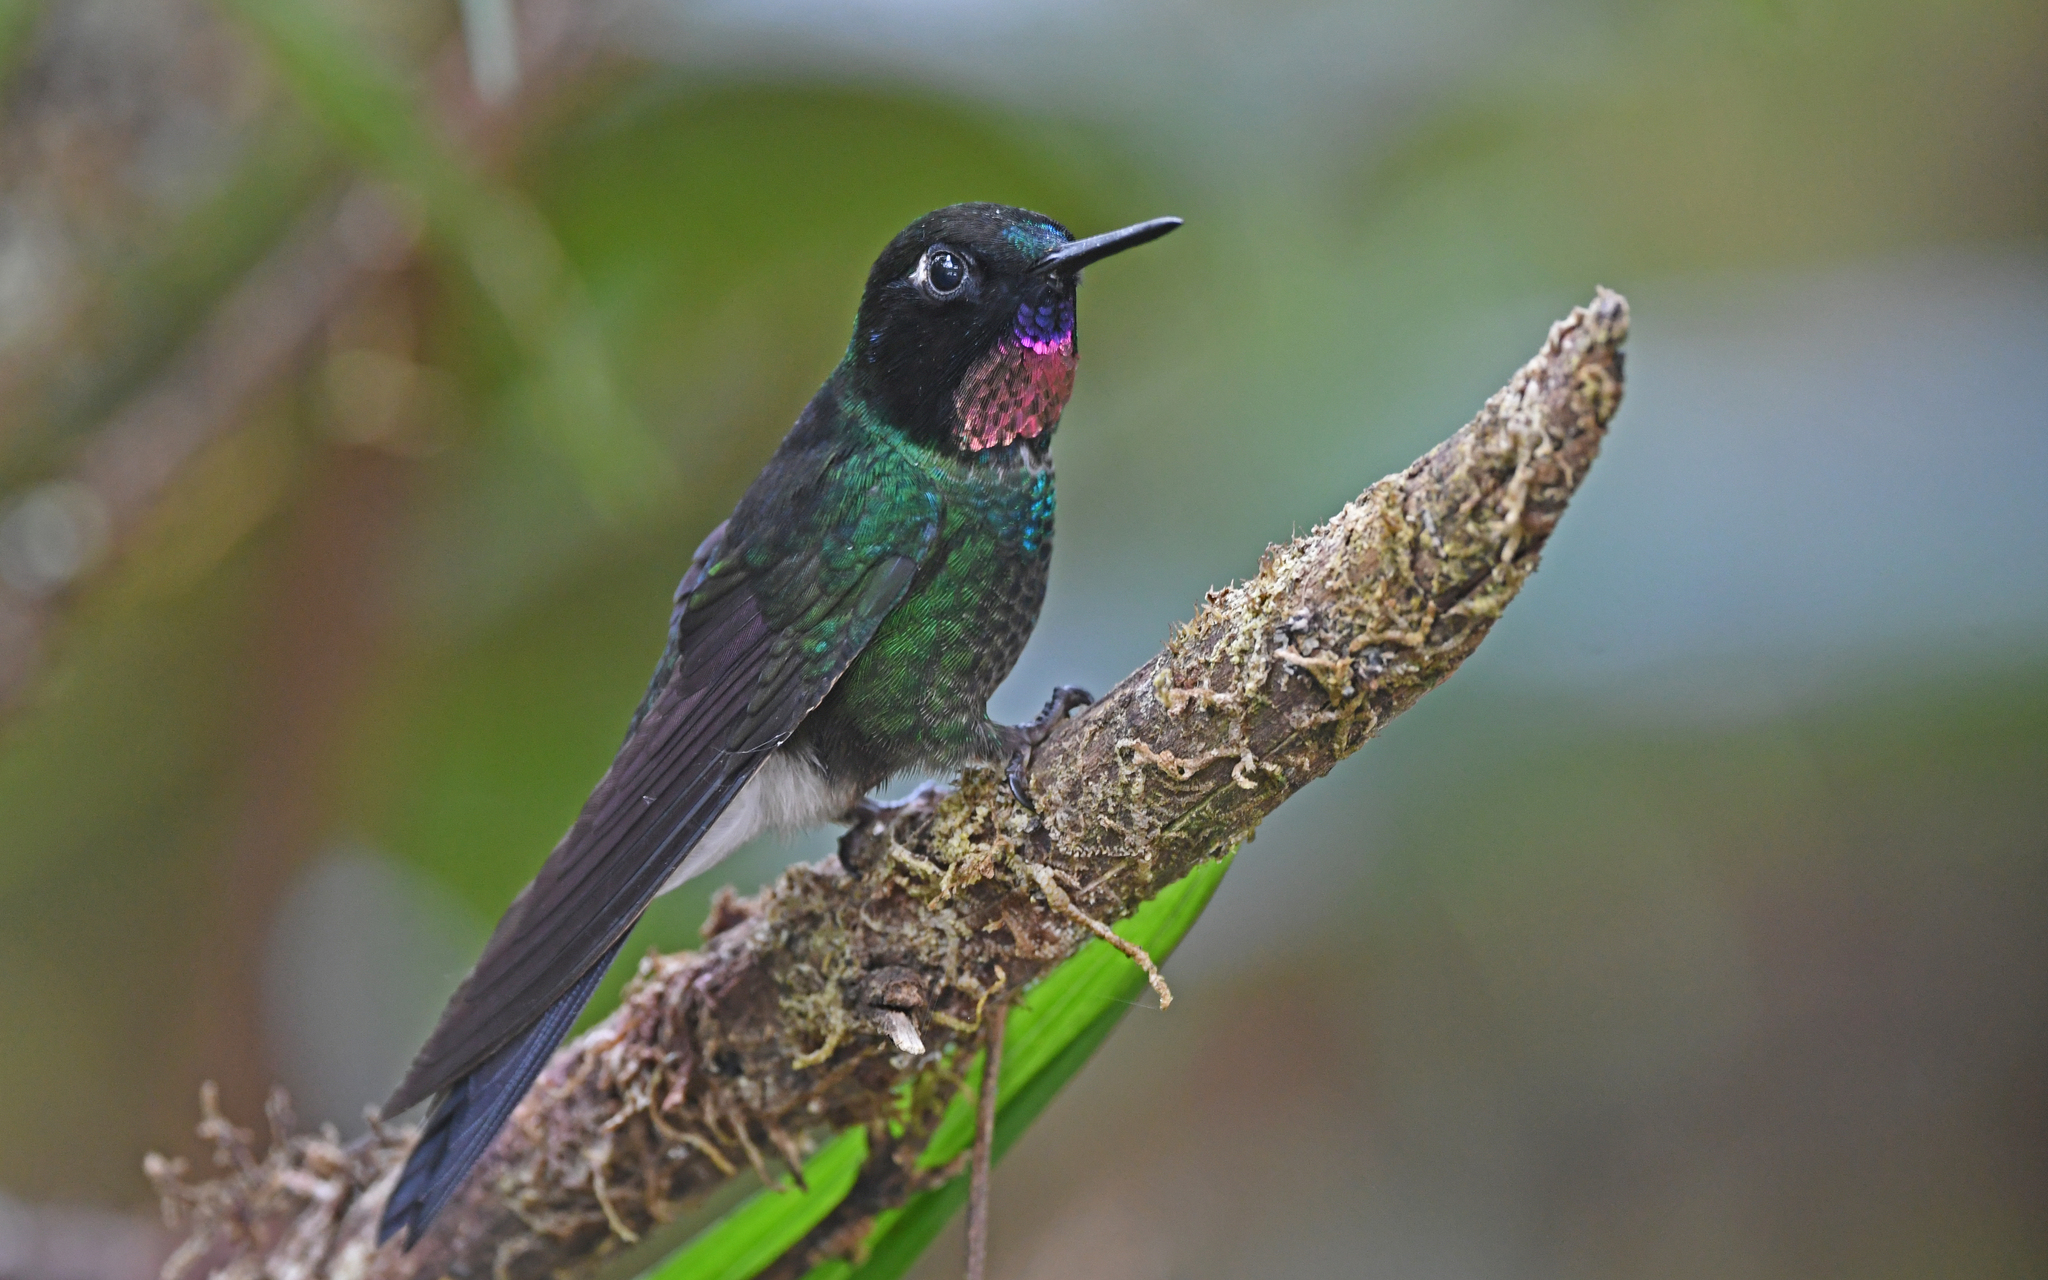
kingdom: Animalia
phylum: Chordata
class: Aves
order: Apodiformes
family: Trochilidae
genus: Heliangelus
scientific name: Heliangelus exortis
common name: Tourmaline sunangel
